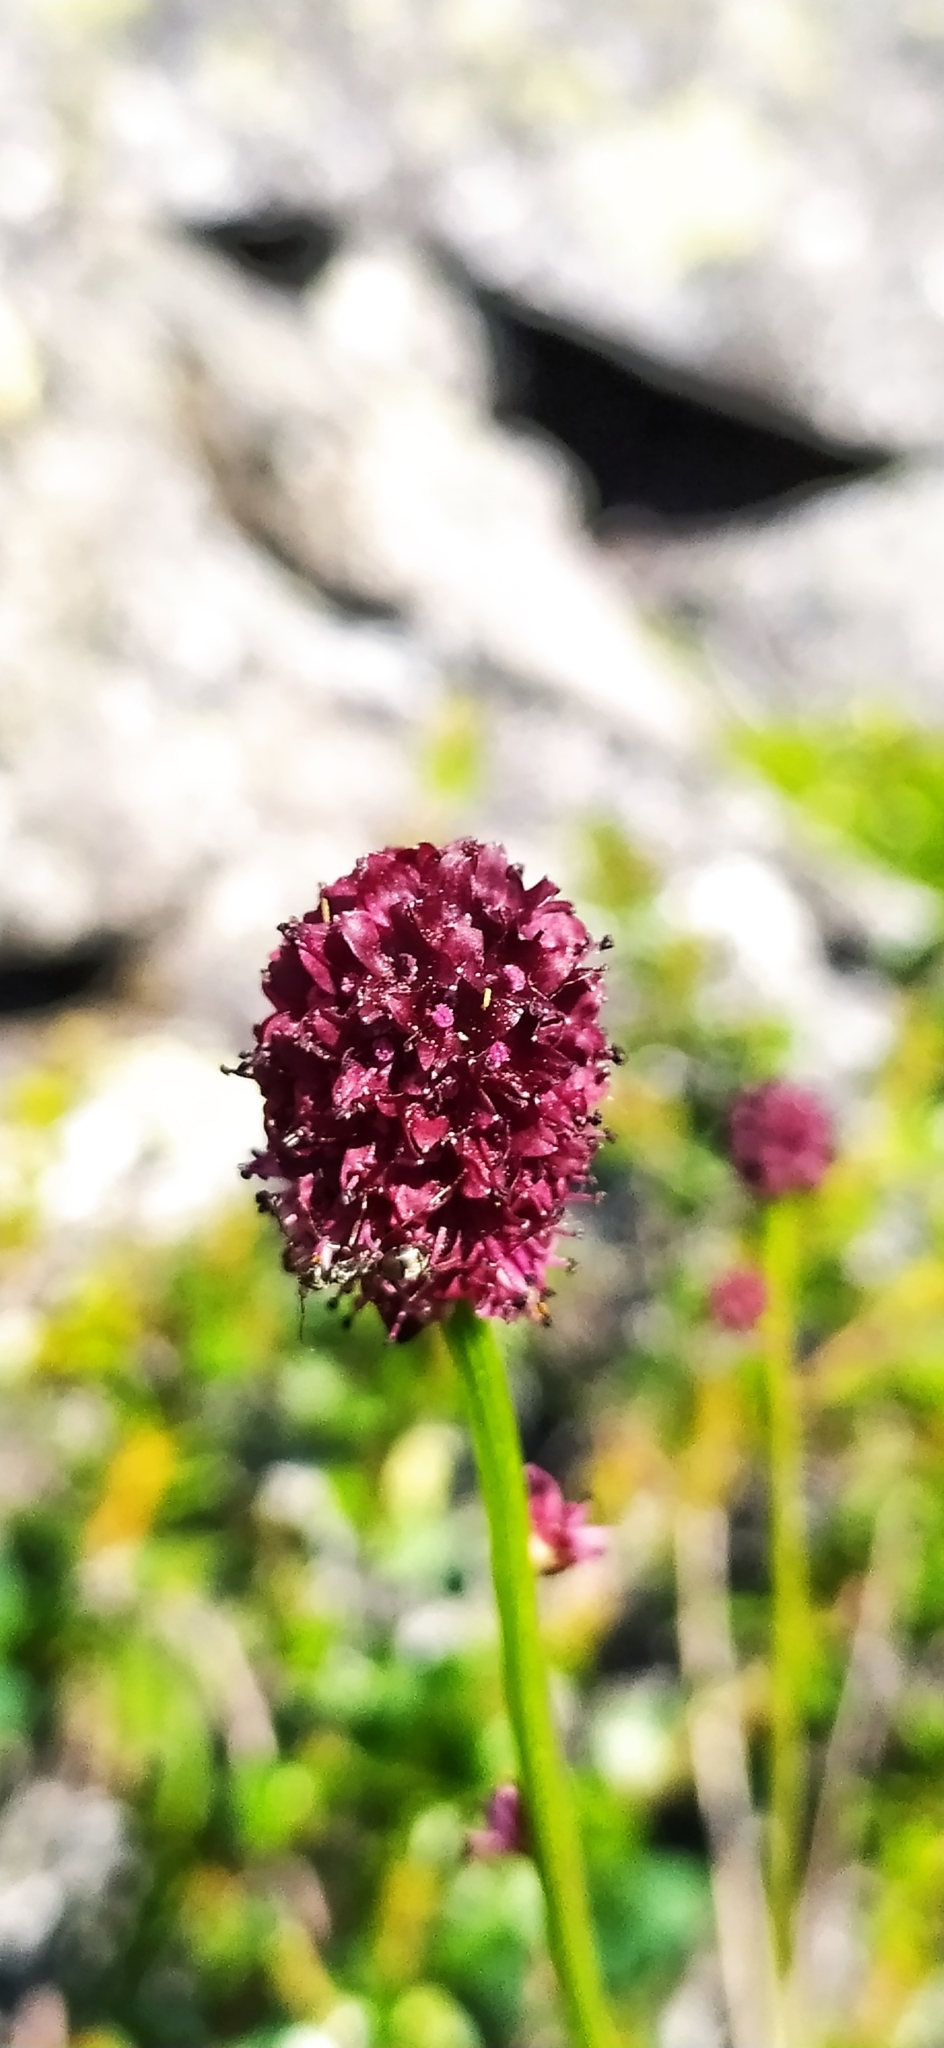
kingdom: Plantae
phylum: Tracheophyta
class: Magnoliopsida
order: Rosales
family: Rosaceae
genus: Sanguisorba
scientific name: Sanguisorba officinalis
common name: Great burnet
